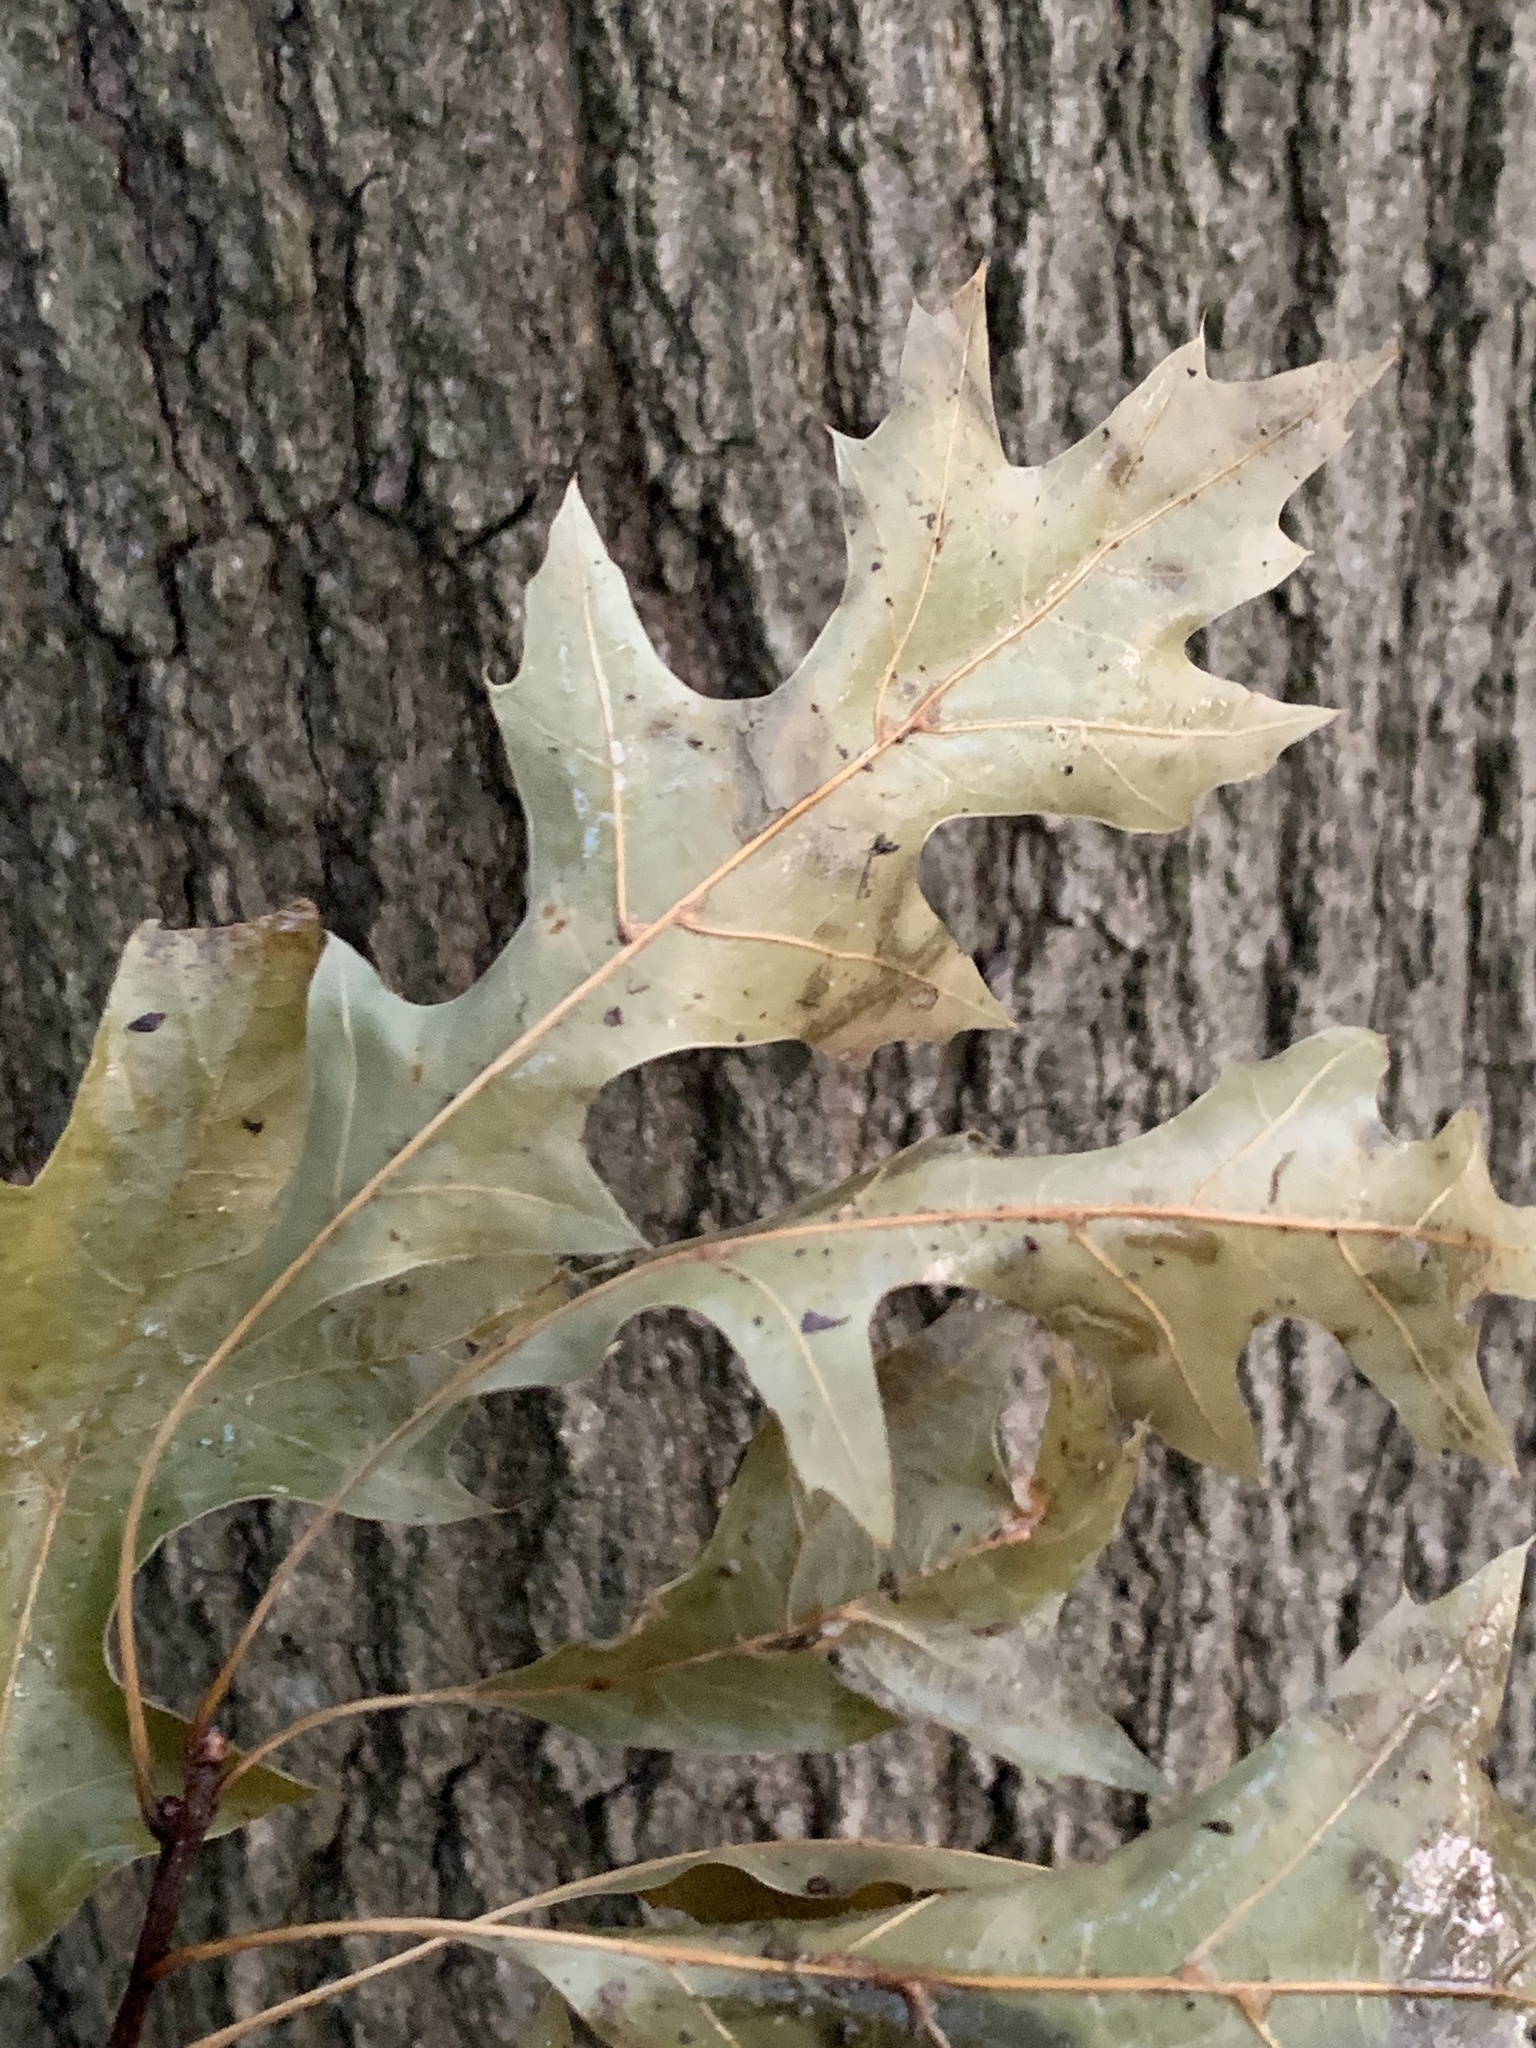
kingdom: Plantae
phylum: Tracheophyta
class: Magnoliopsida
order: Fagales
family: Fagaceae
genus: Quercus
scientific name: Quercus palustris
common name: Pin oak
